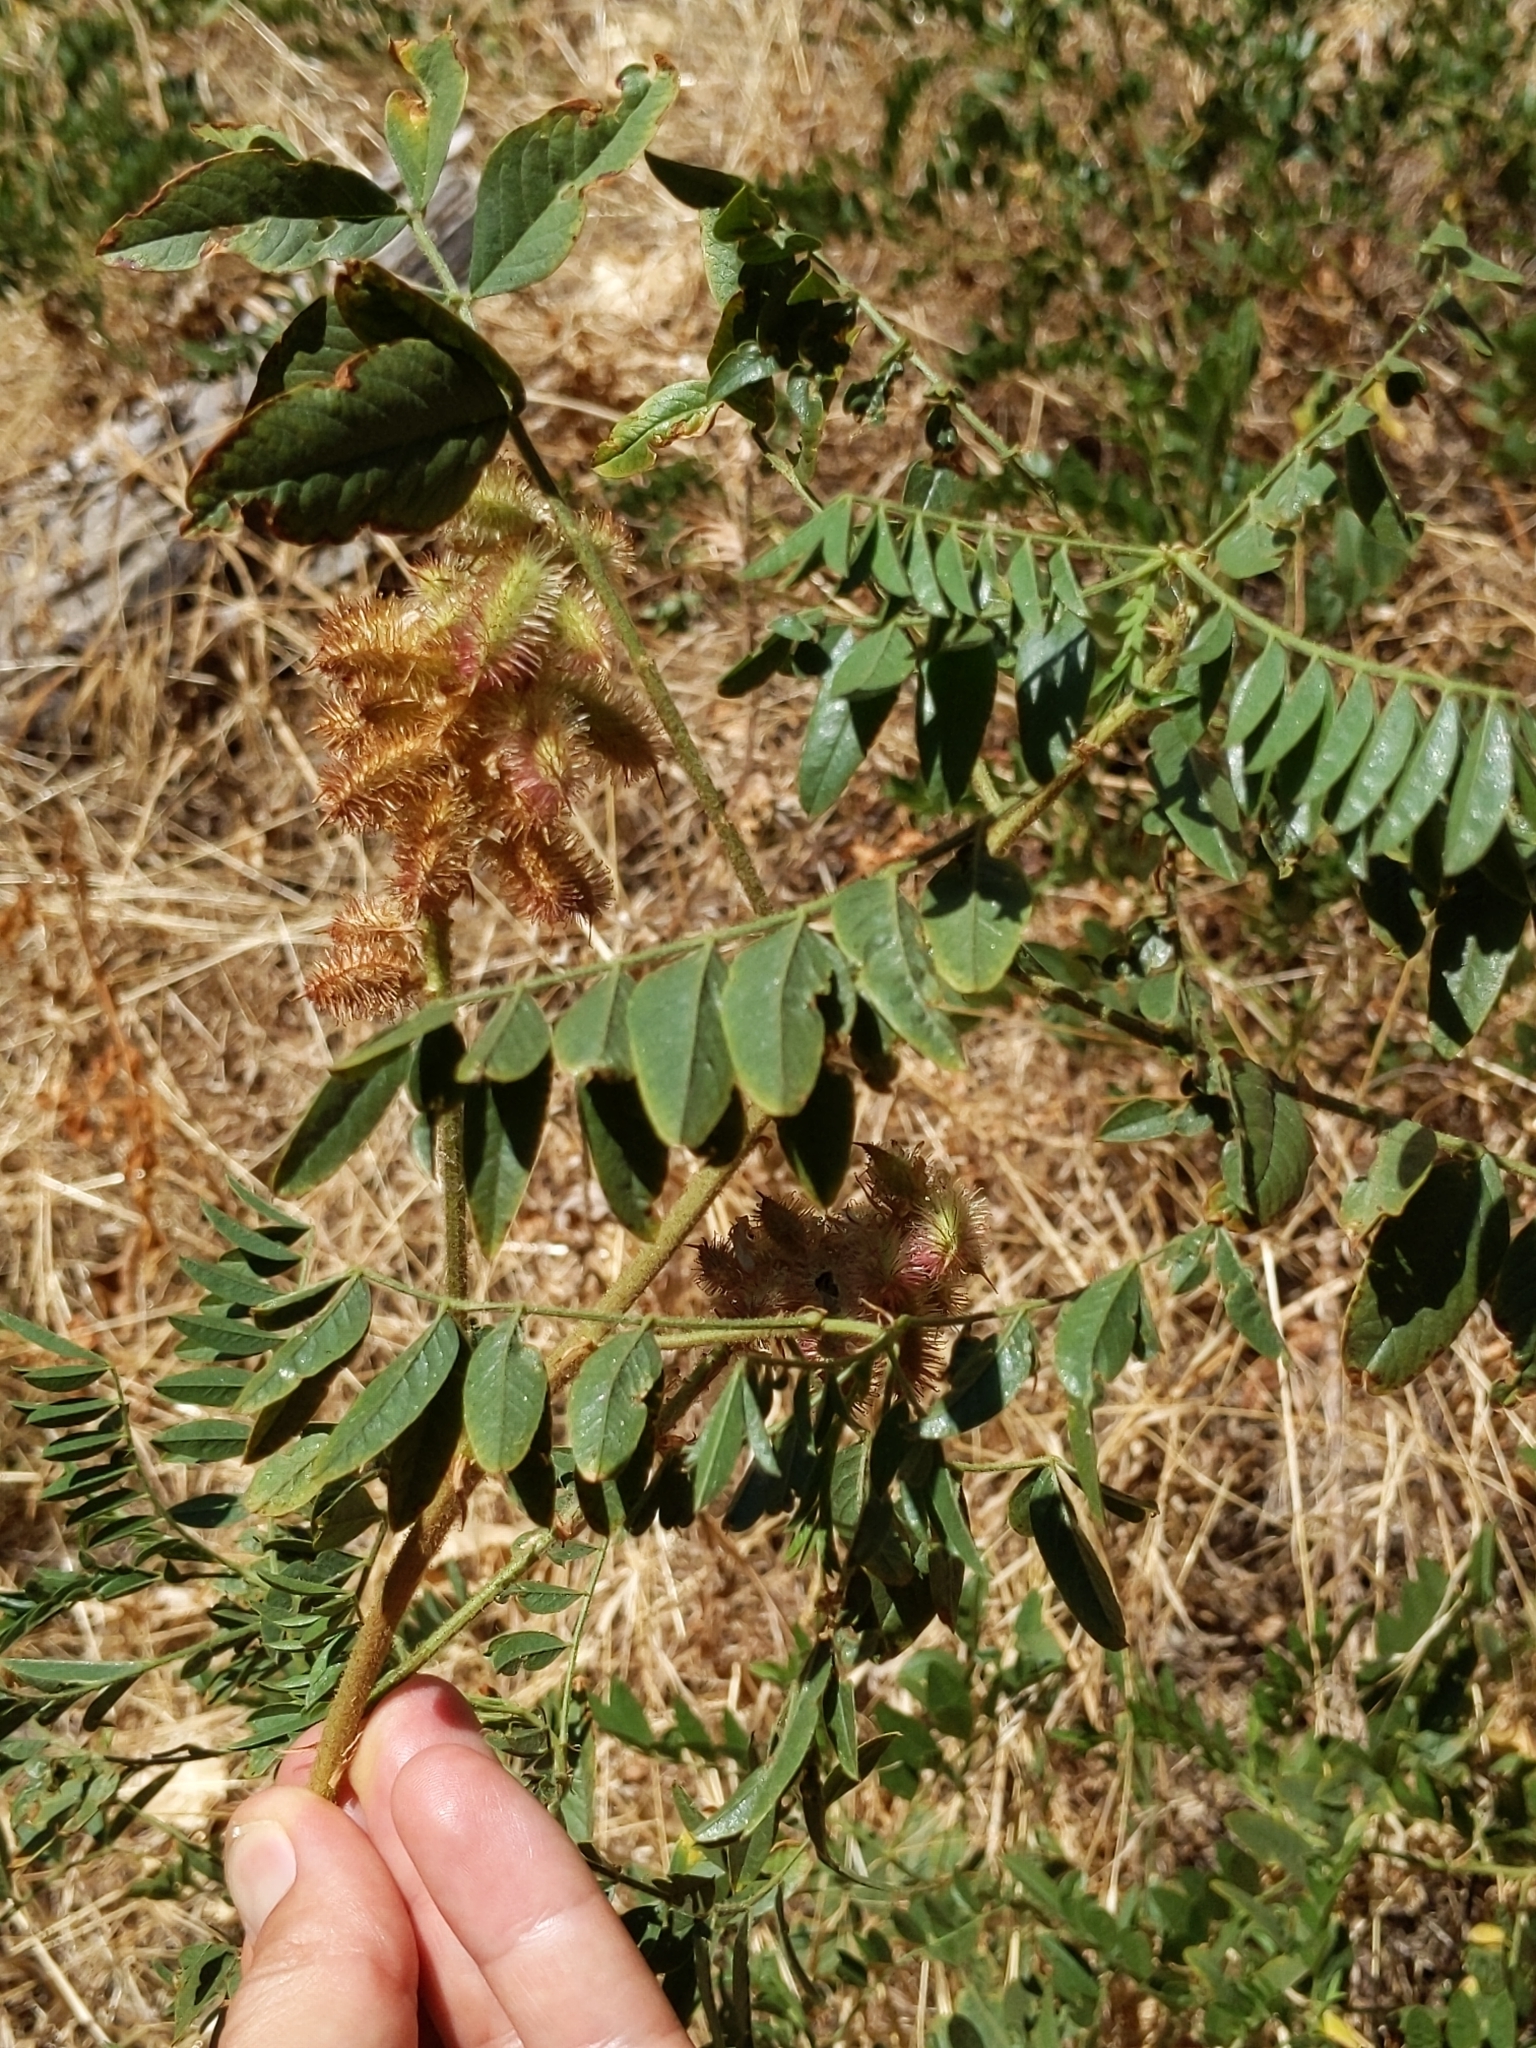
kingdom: Plantae
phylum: Tracheophyta
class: Magnoliopsida
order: Fabales
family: Fabaceae
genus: Glycyrrhiza
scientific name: Glycyrrhiza lepidota
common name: American liquorice
